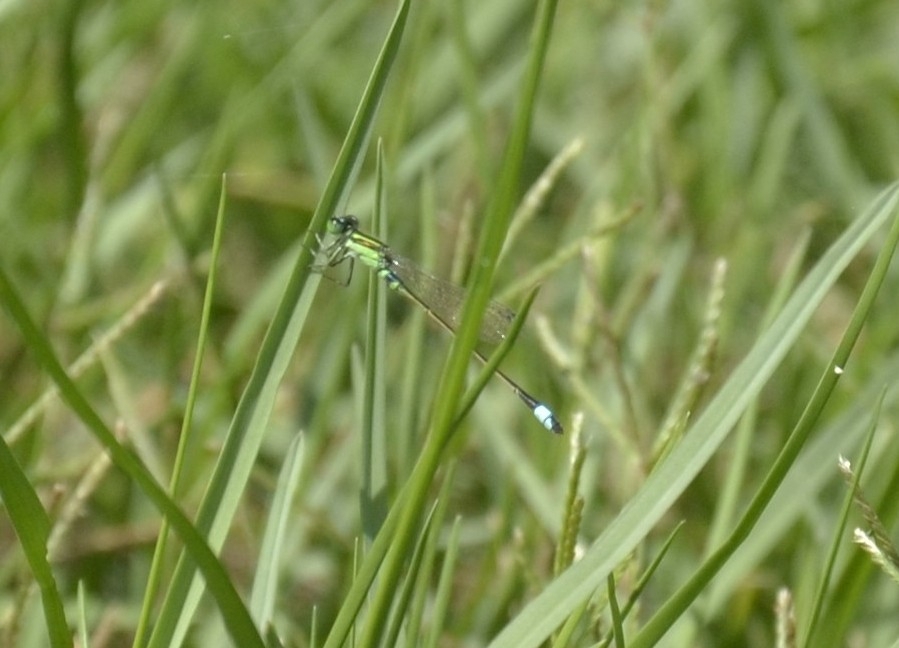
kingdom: Animalia
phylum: Arthropoda
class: Insecta
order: Odonata
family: Coenagrionidae
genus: Ischnura
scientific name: Ischnura senegalensis
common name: Tropical bluetail
